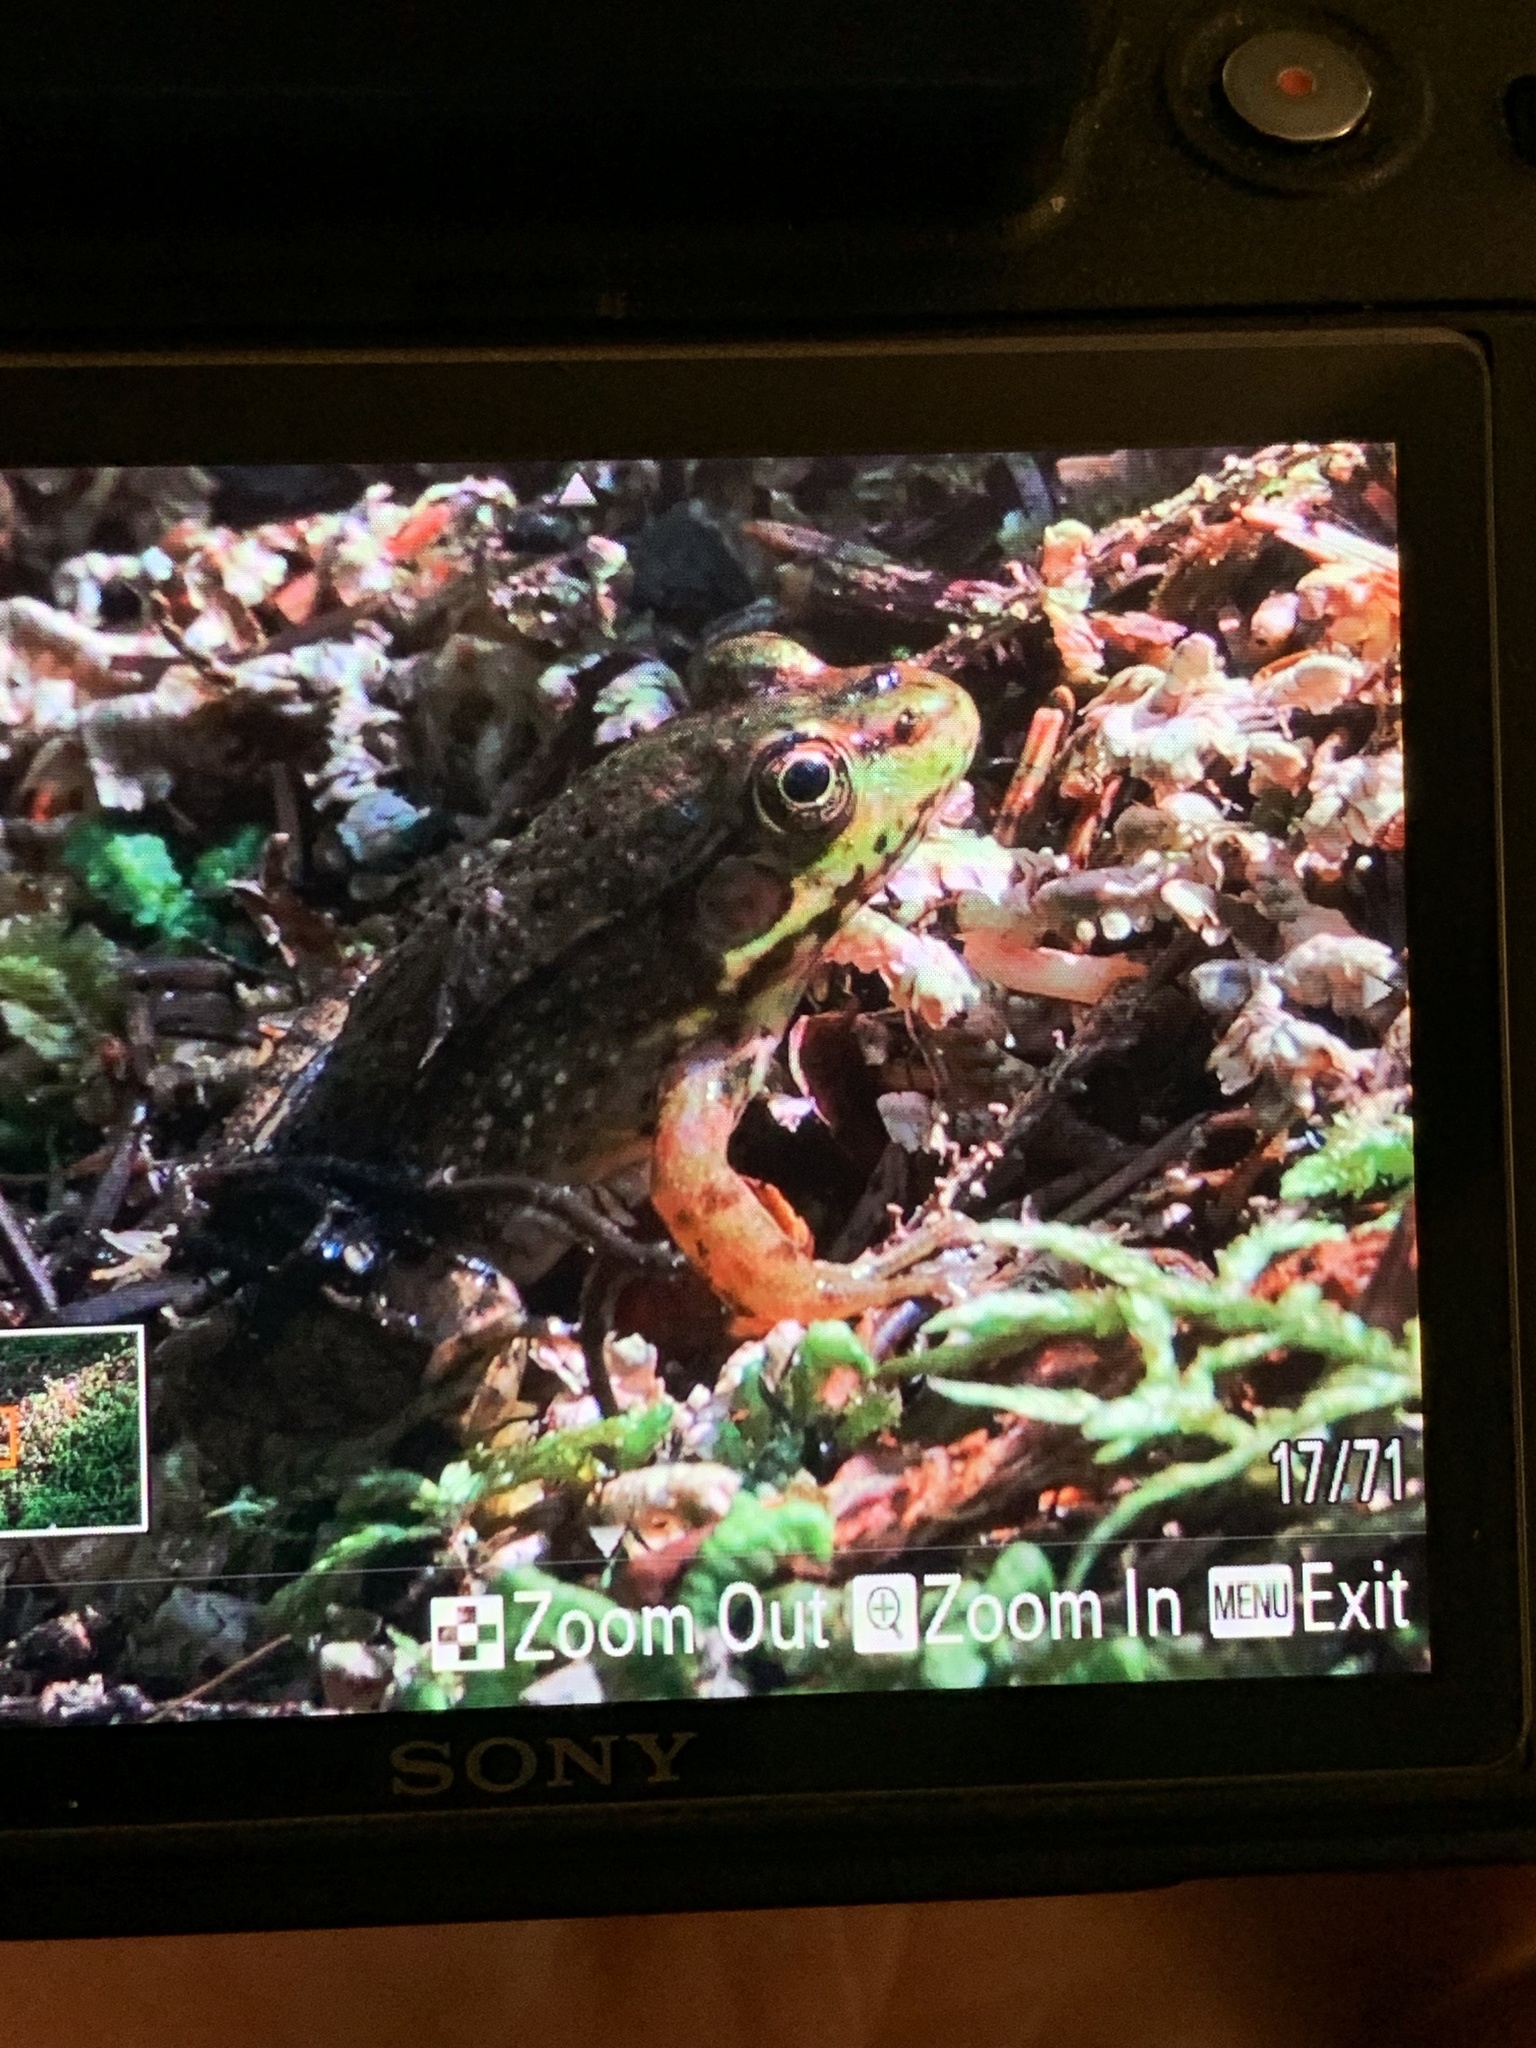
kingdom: Animalia
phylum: Chordata
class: Amphibia
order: Anura
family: Ranidae
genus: Lithobates
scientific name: Lithobates clamitans
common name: Green frog
